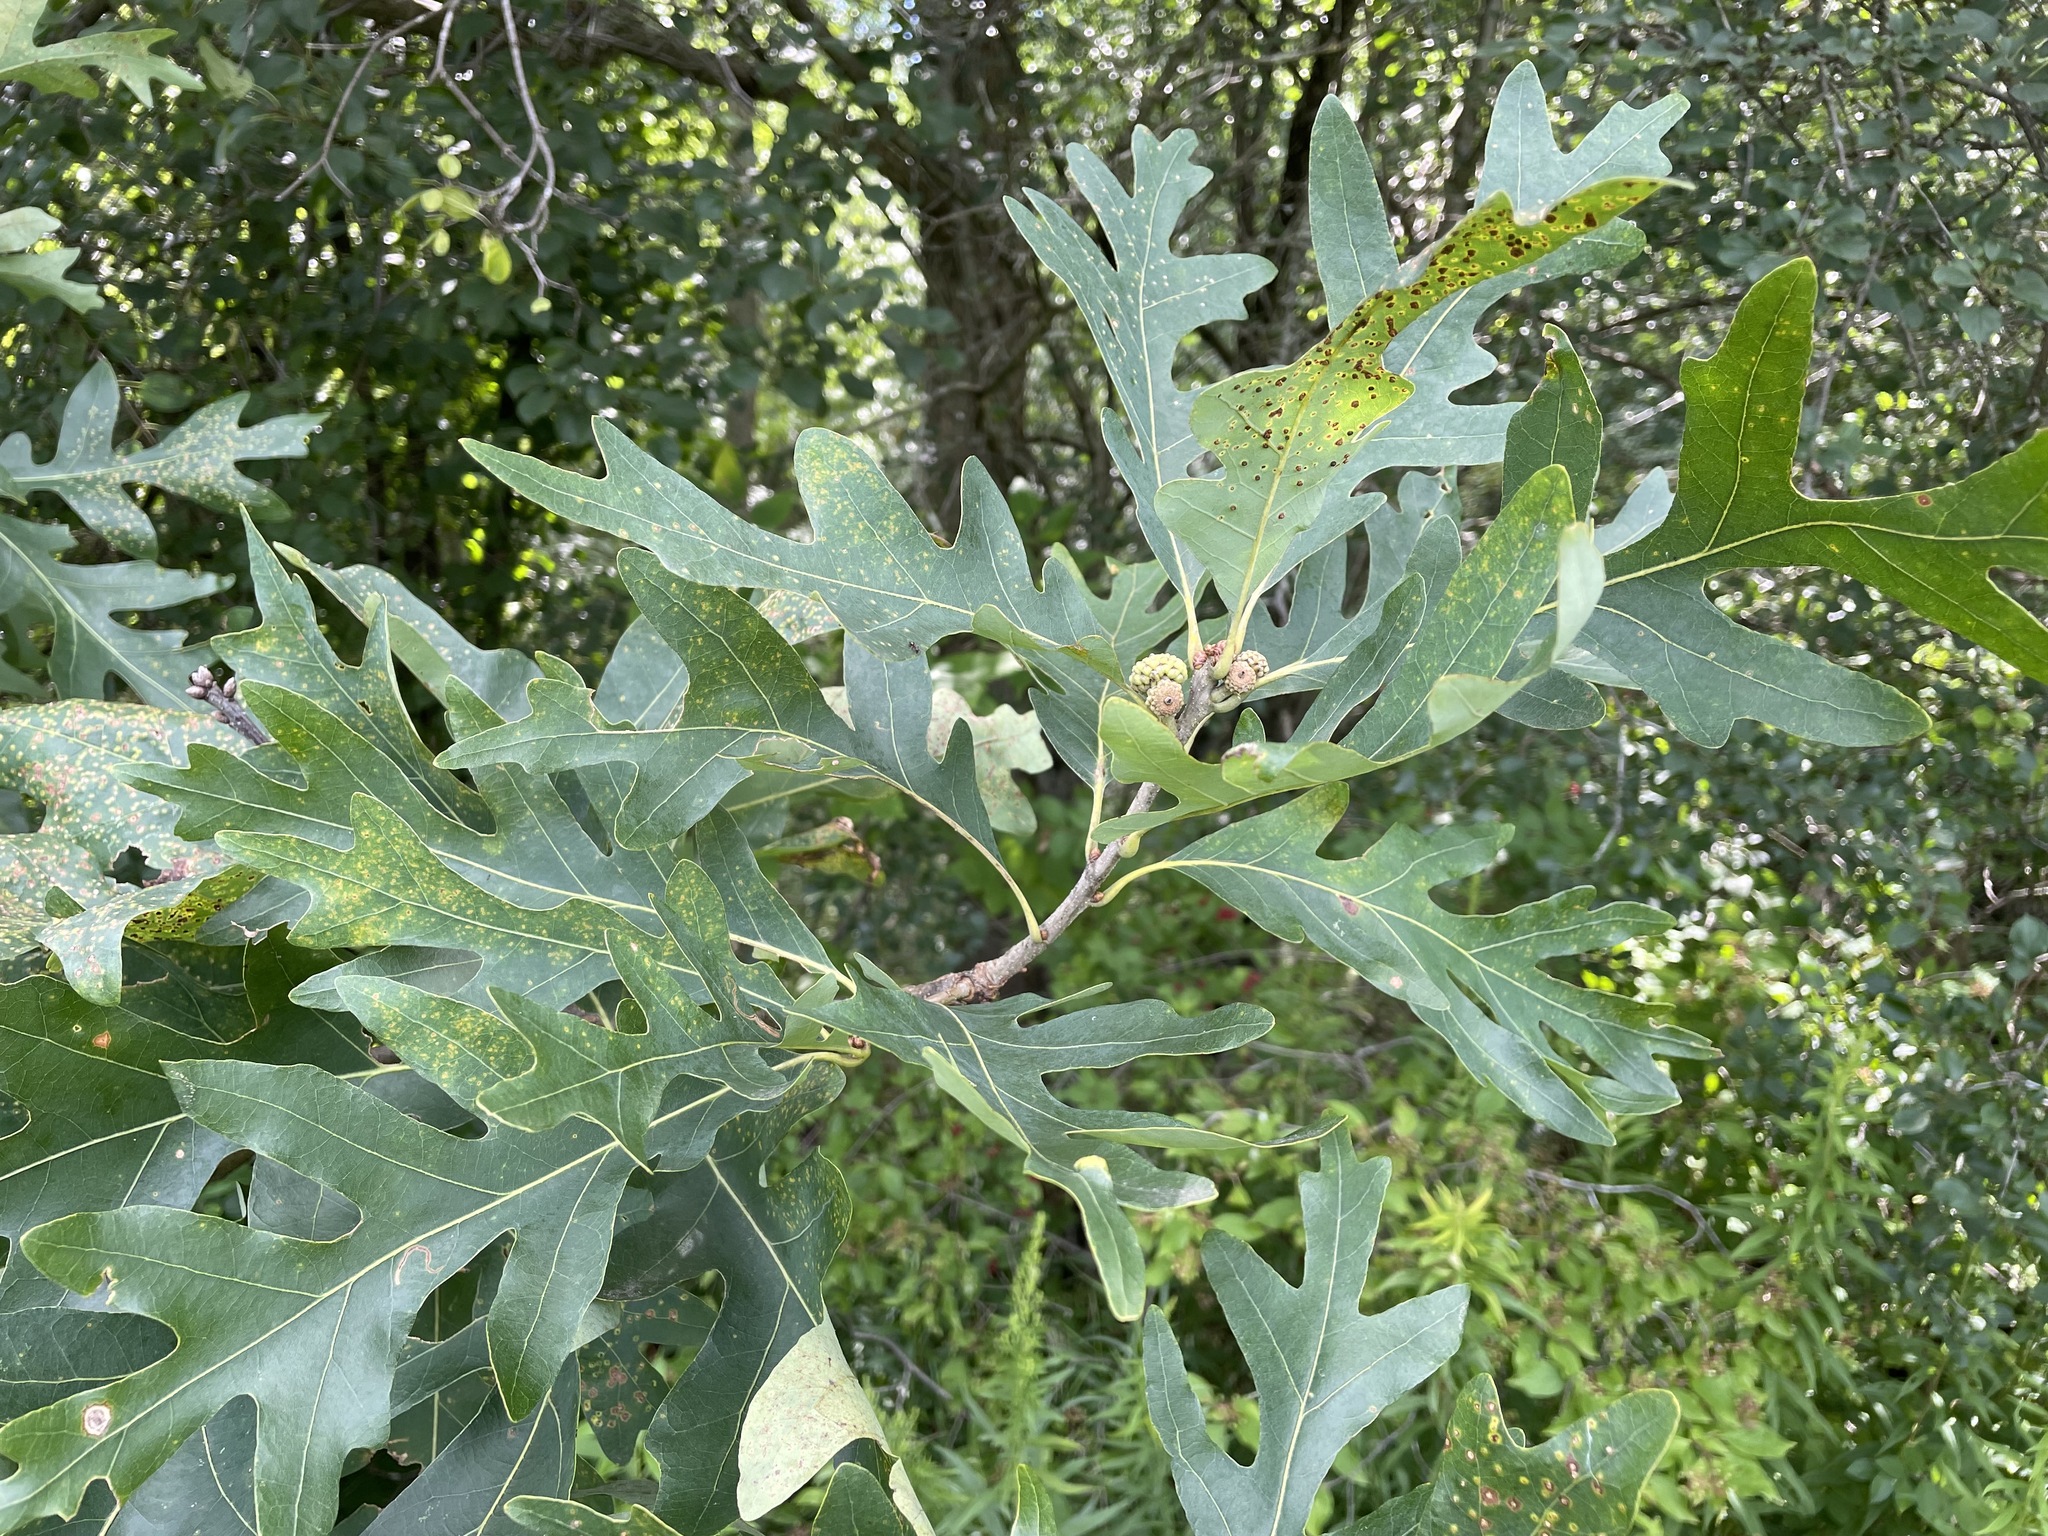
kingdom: Plantae
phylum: Tracheophyta
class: Magnoliopsida
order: Fagales
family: Fagaceae
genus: Quercus
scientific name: Quercus alba
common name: White oak
